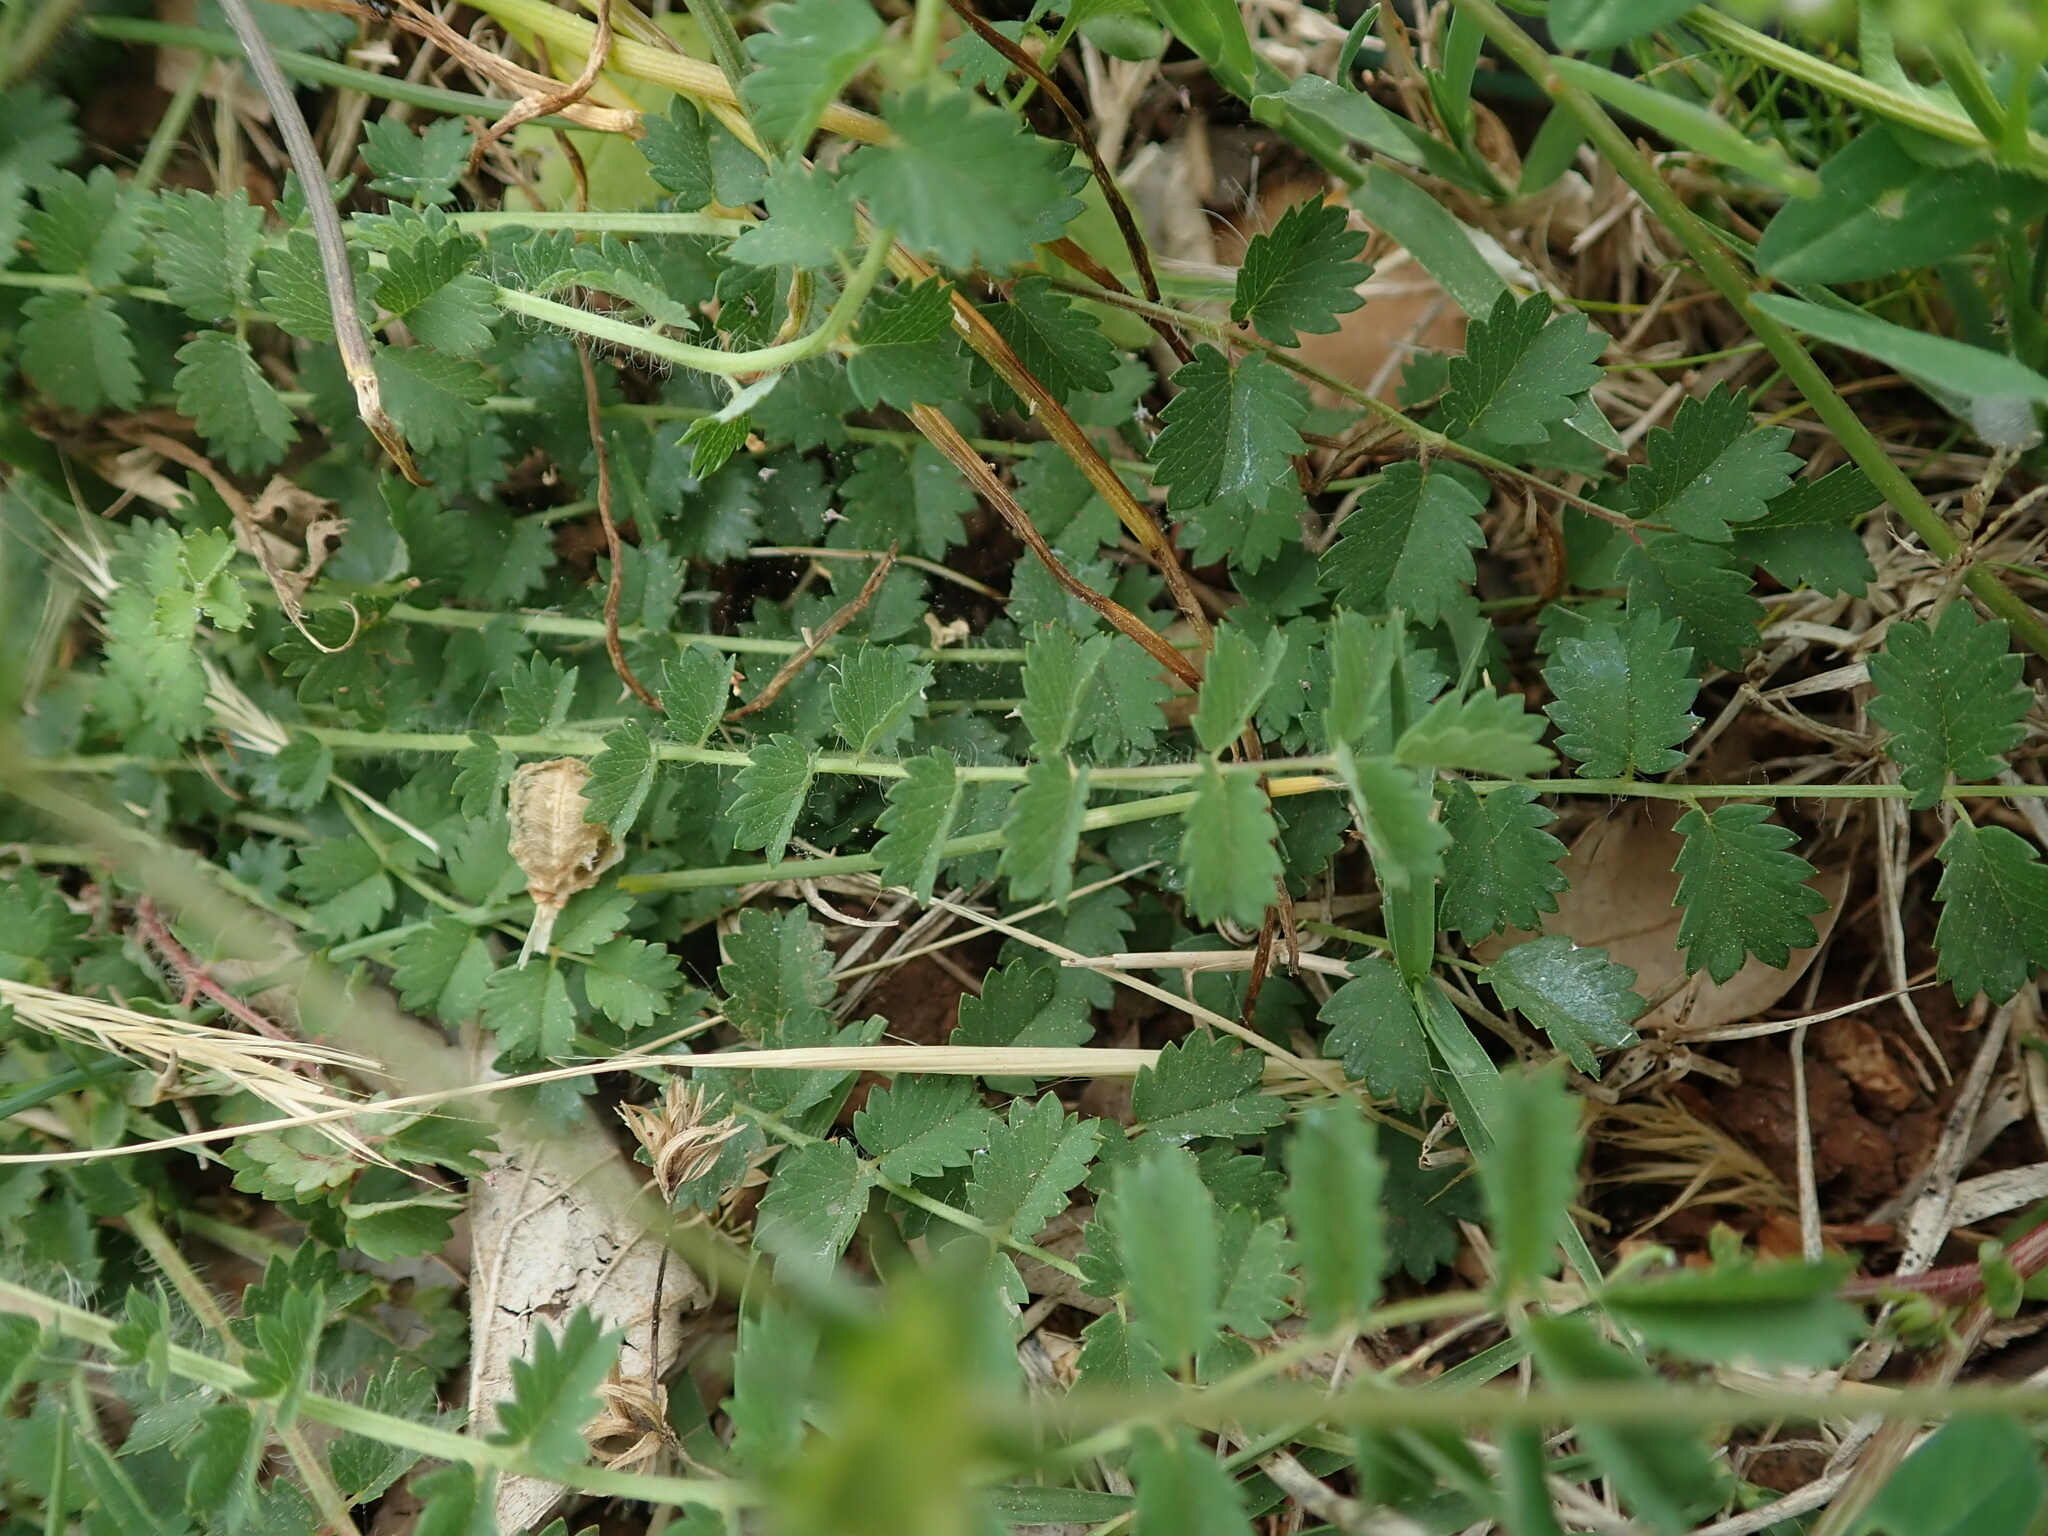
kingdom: Plantae
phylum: Tracheophyta
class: Magnoliopsida
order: Rosales
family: Rosaceae
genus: Poterium
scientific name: Poterium sanguisorba
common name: Salad burnet
